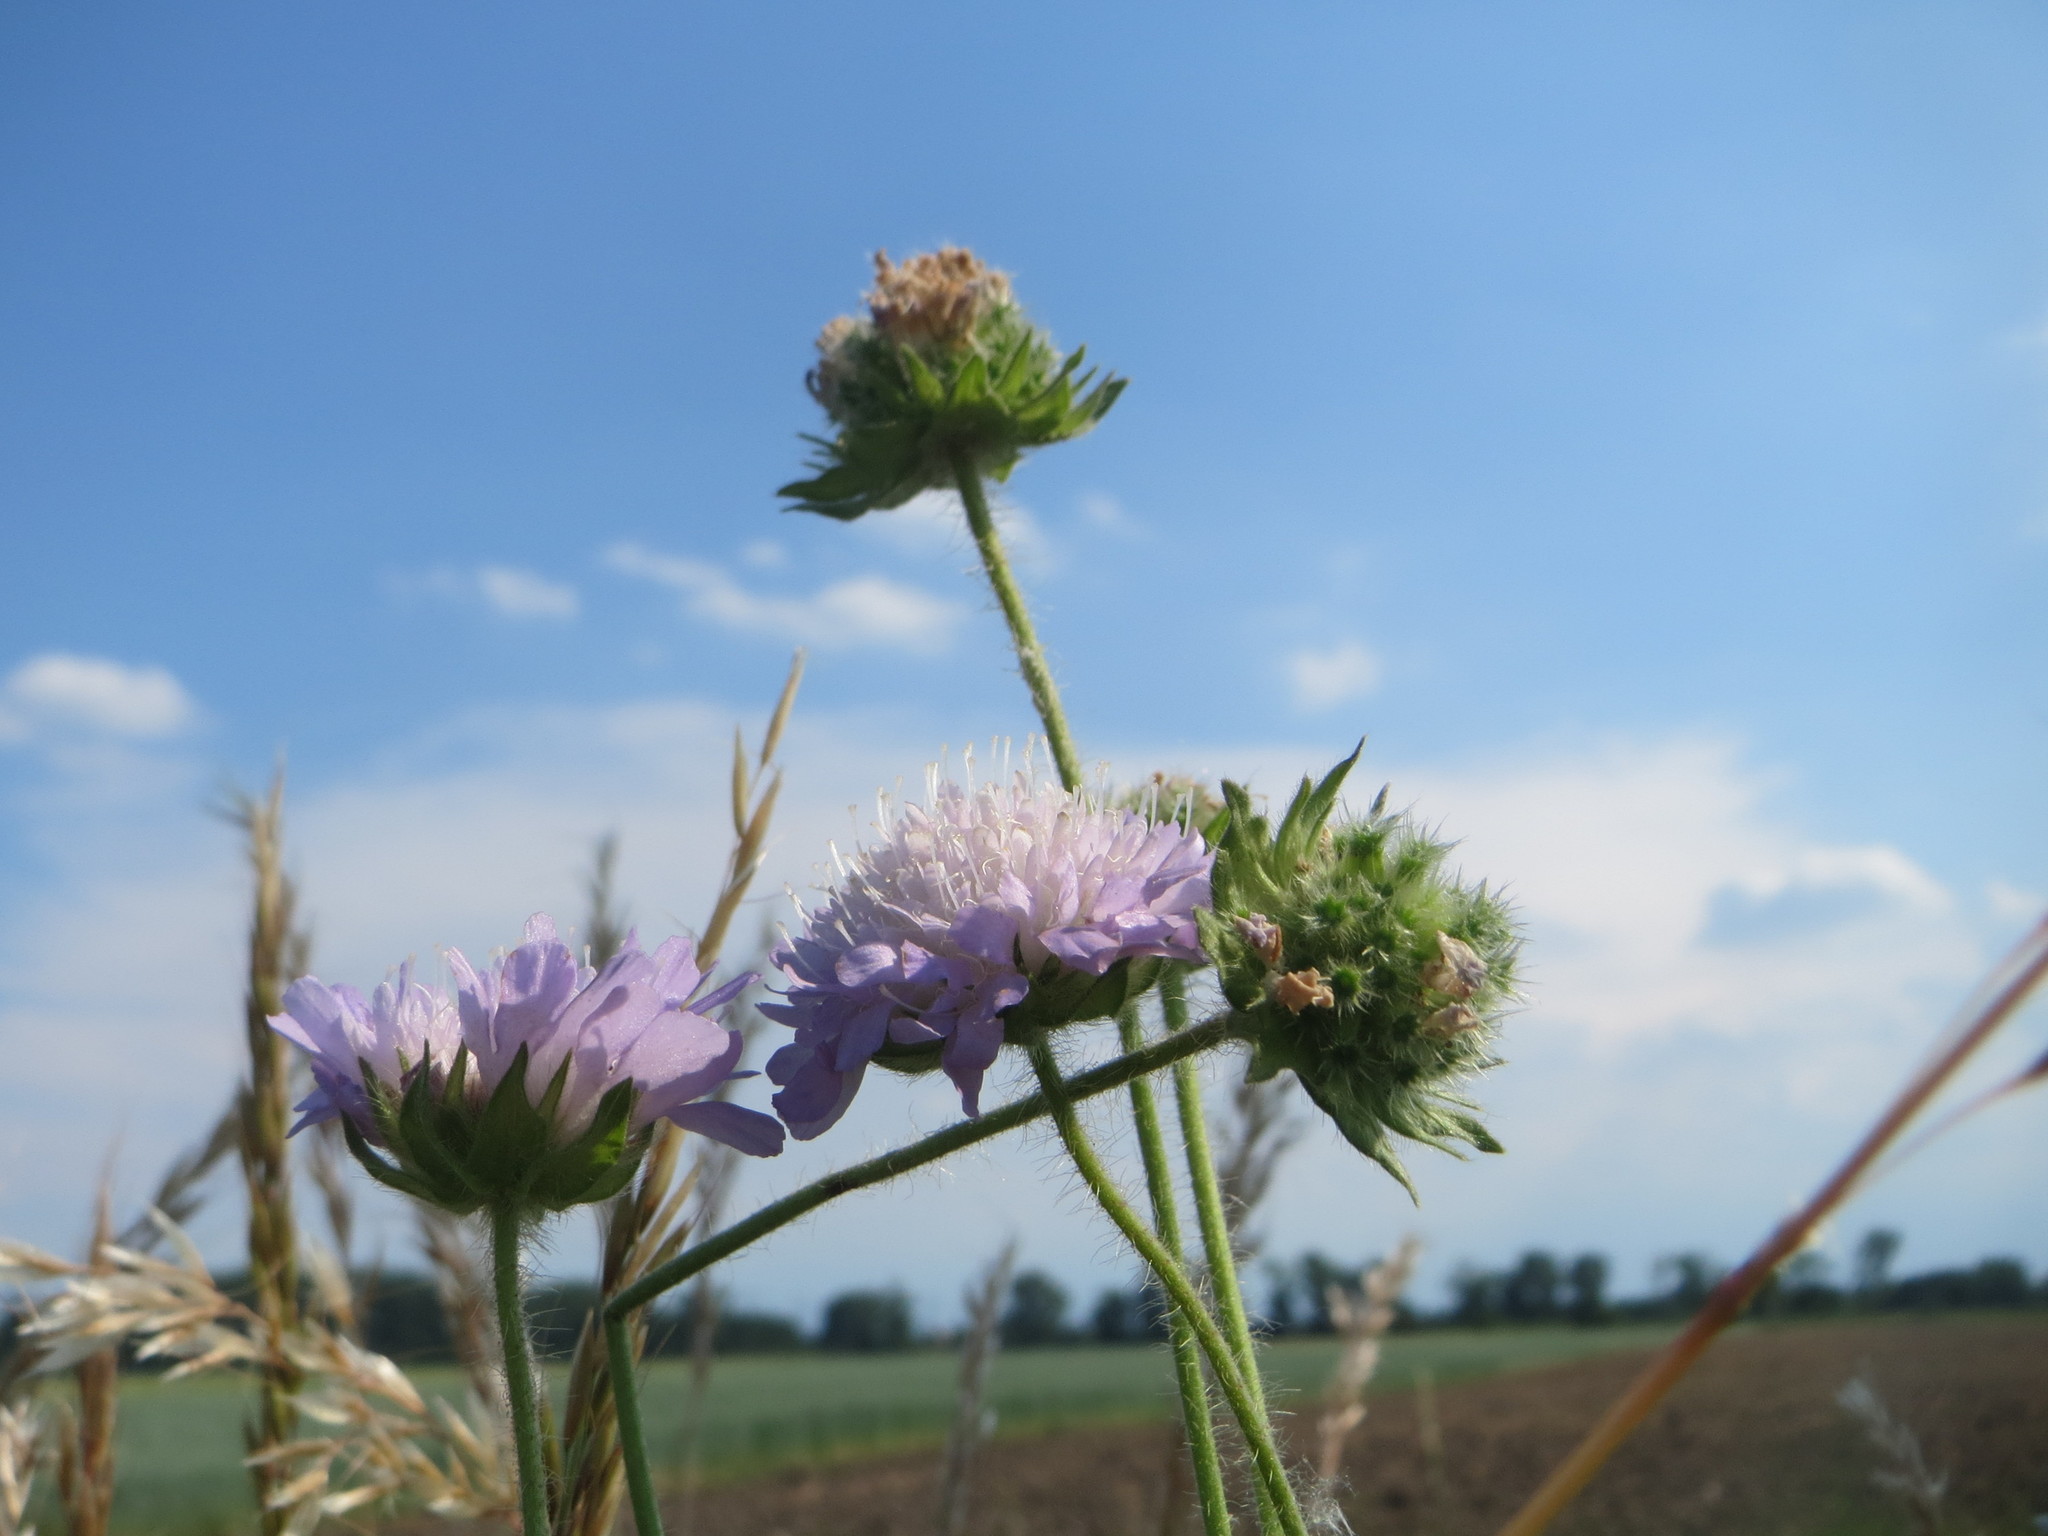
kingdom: Plantae
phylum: Tracheophyta
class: Magnoliopsida
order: Dipsacales
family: Caprifoliaceae
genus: Knautia
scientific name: Knautia arvensis
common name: Field scabiosa
